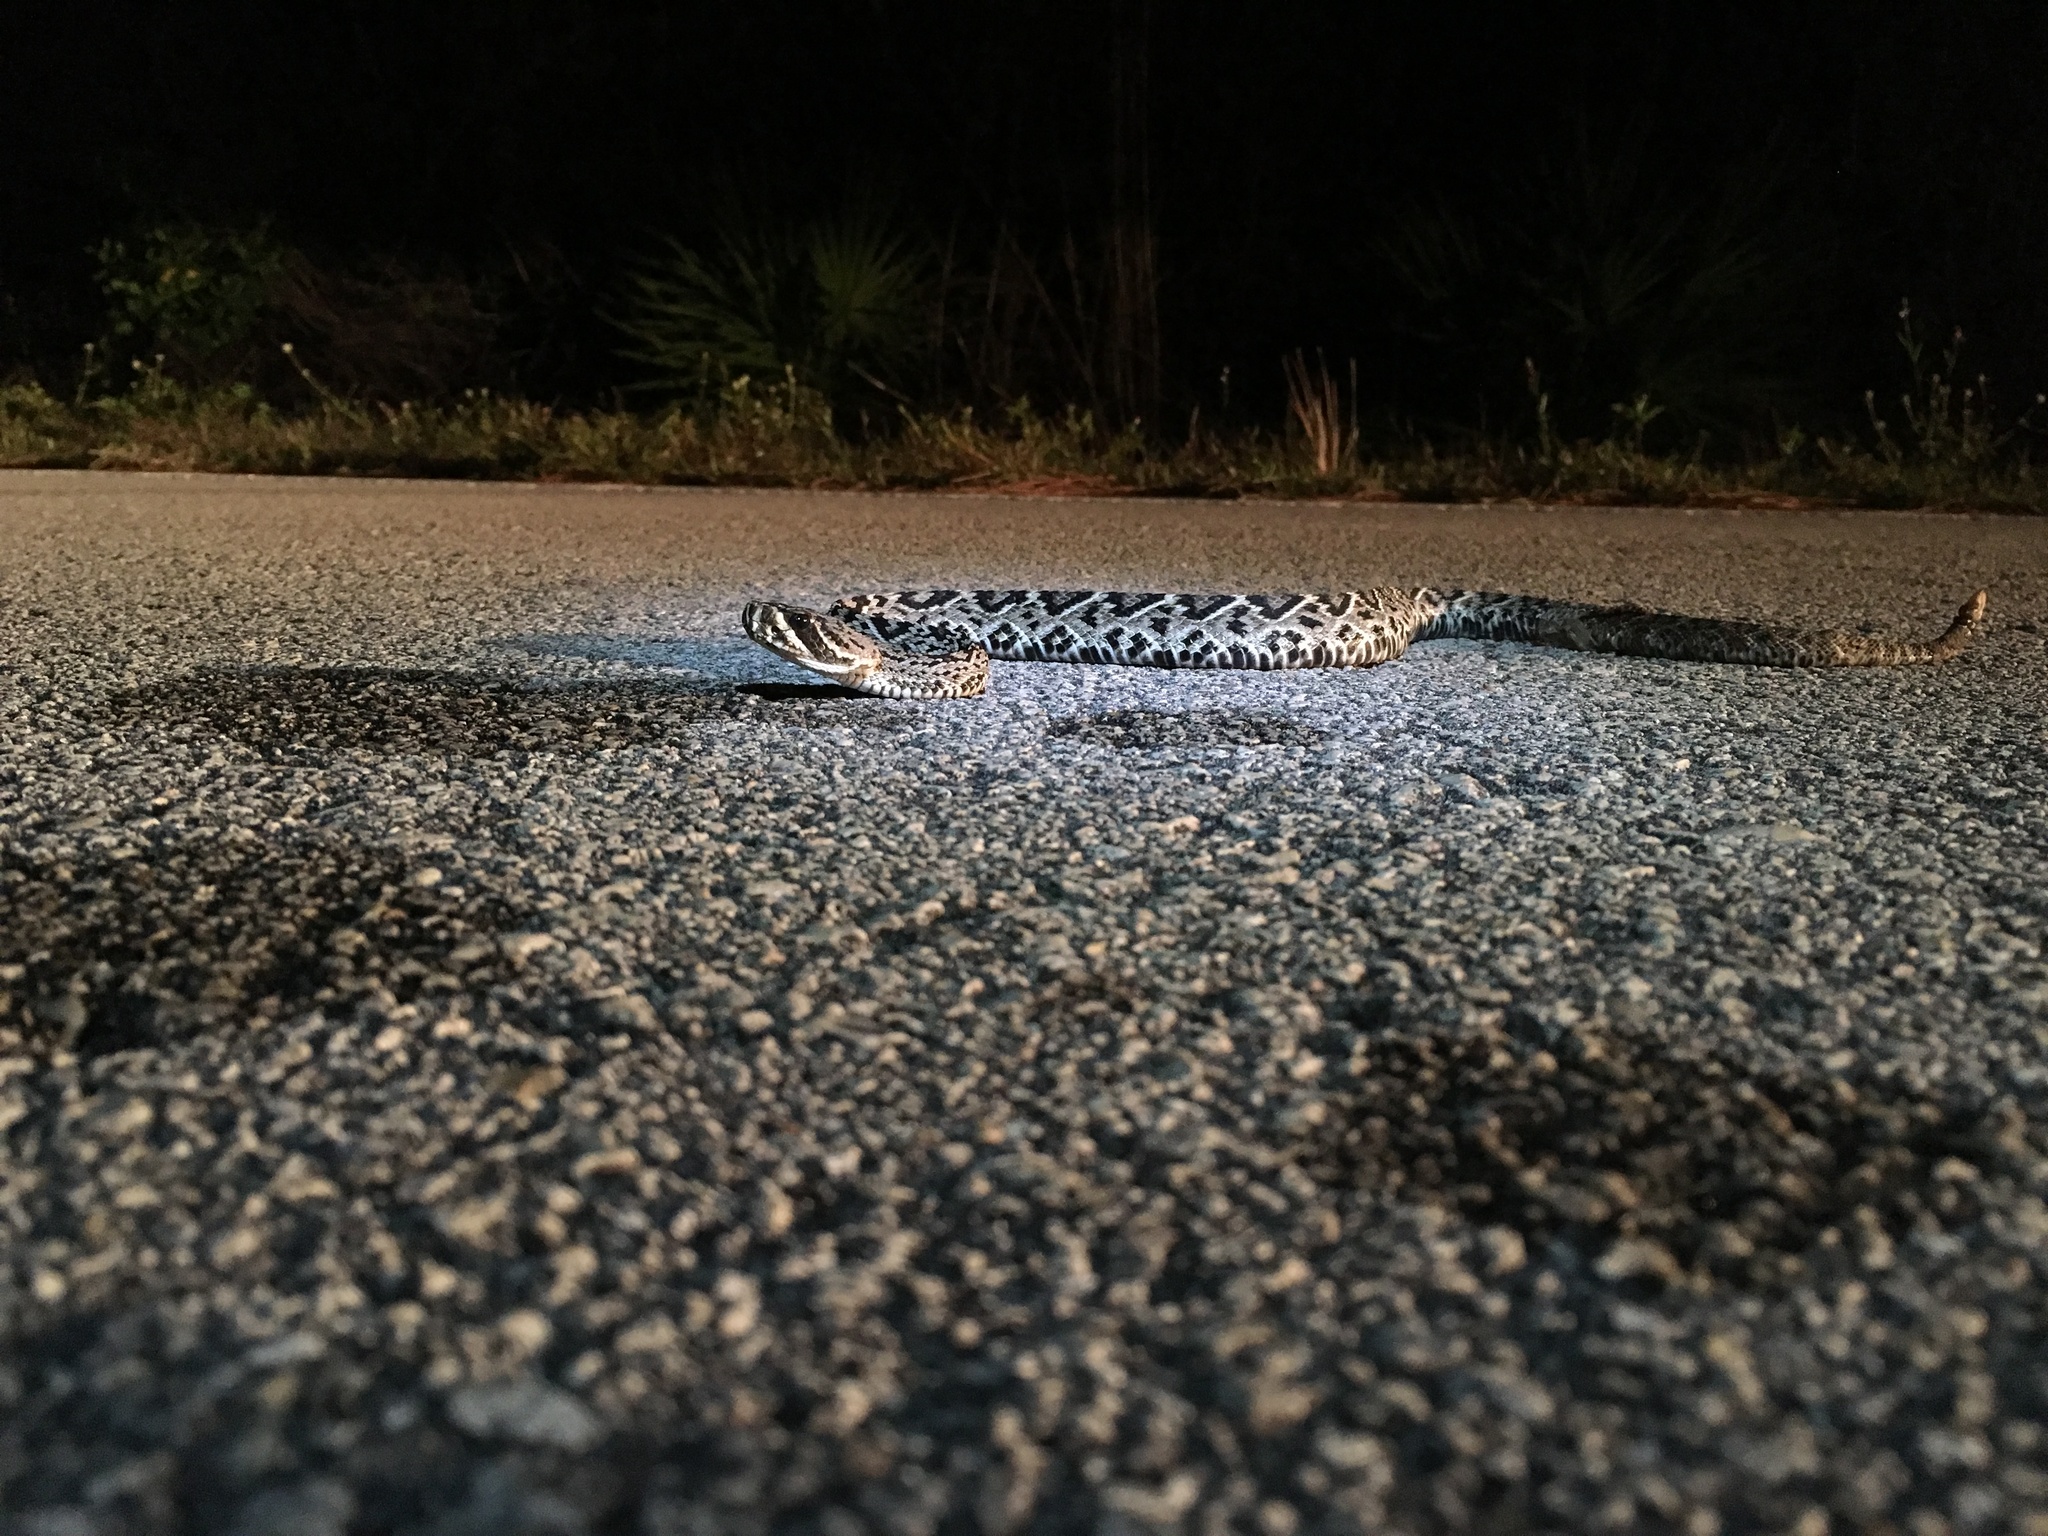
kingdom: Animalia
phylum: Chordata
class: Squamata
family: Viperidae
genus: Crotalus
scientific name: Crotalus adamanteus
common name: Eastern diamondback rattlesnake
